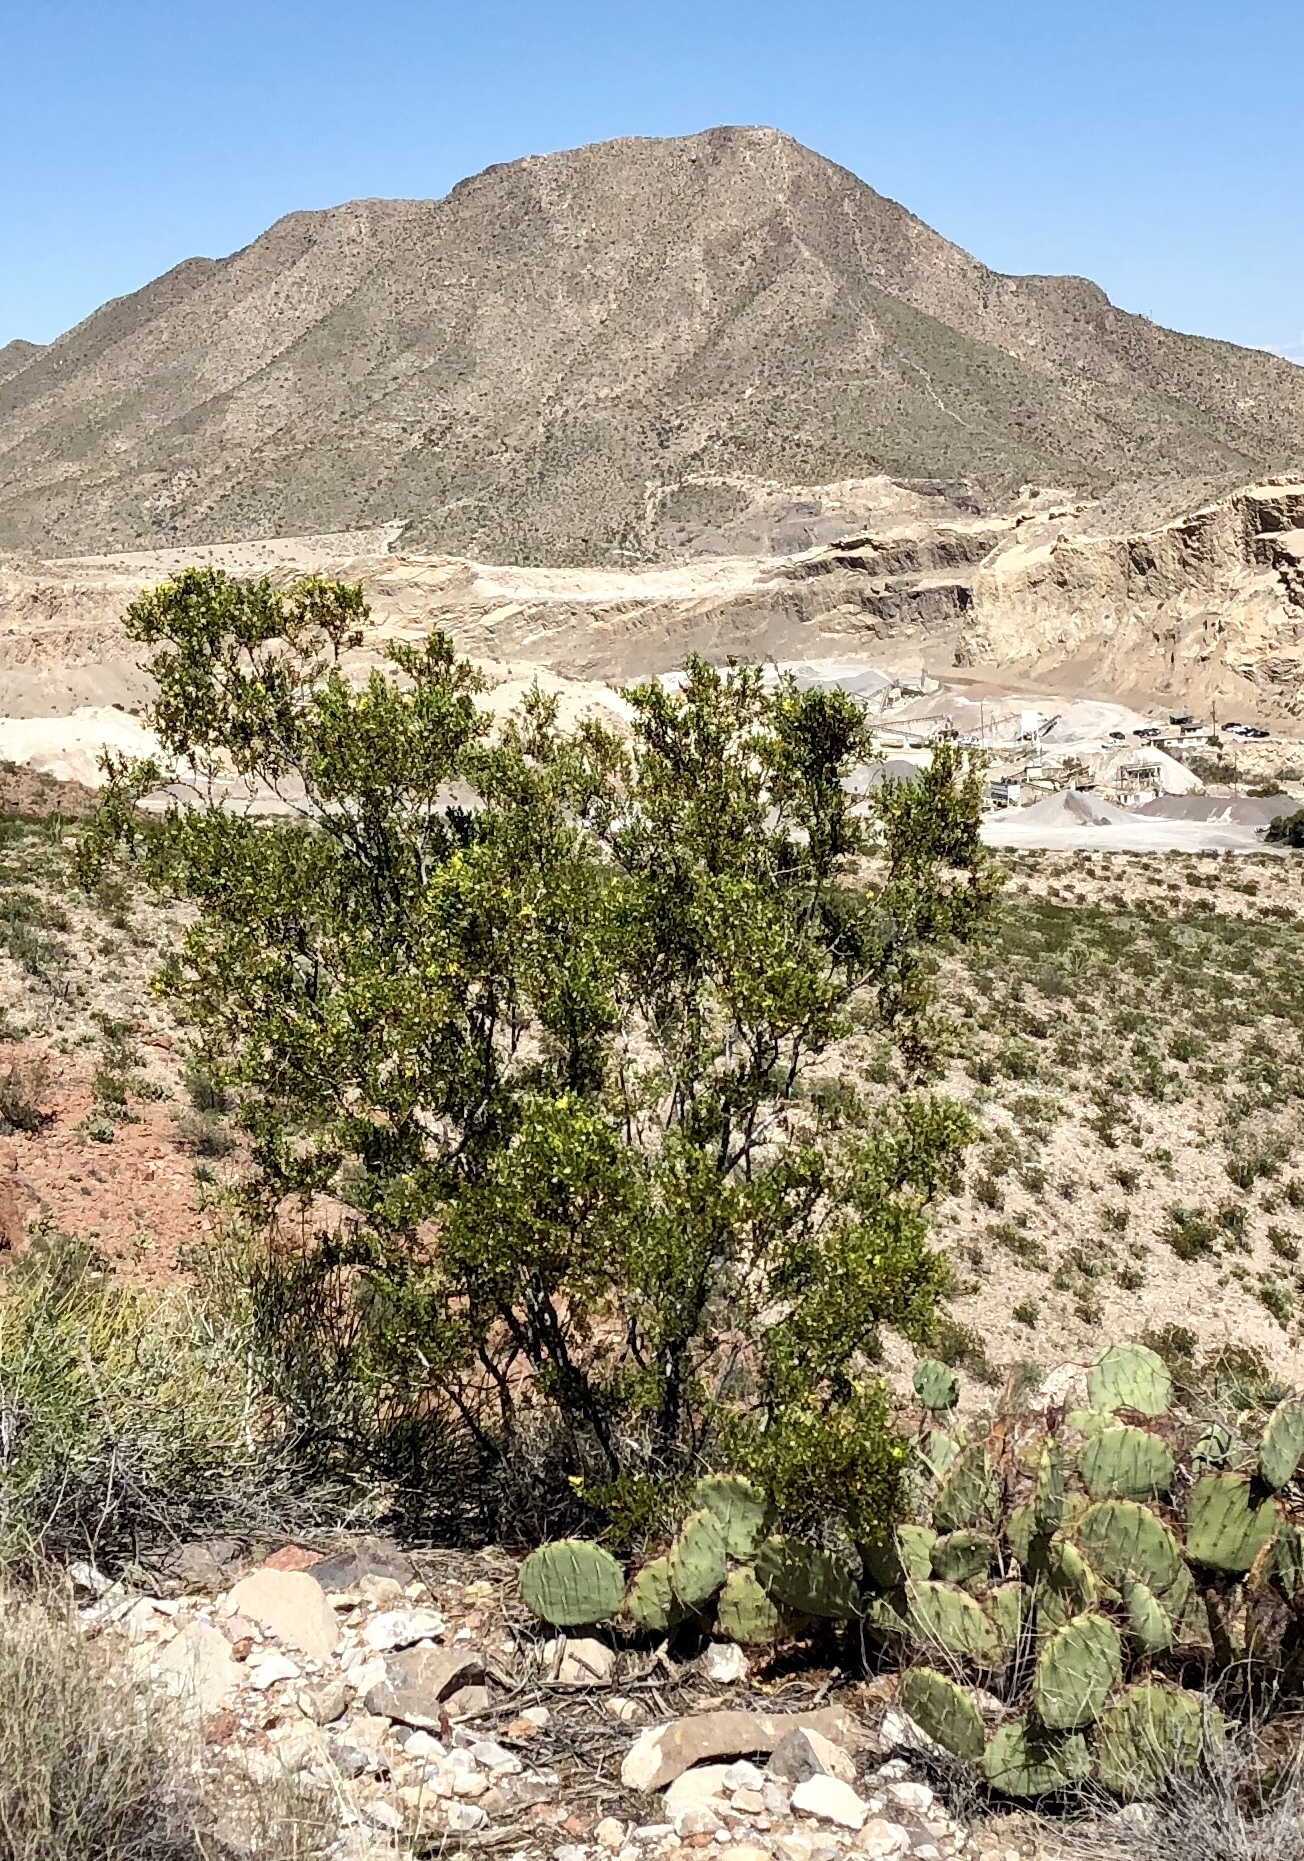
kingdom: Plantae
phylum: Tracheophyta
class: Magnoliopsida
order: Zygophyllales
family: Zygophyllaceae
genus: Larrea
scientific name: Larrea tridentata
